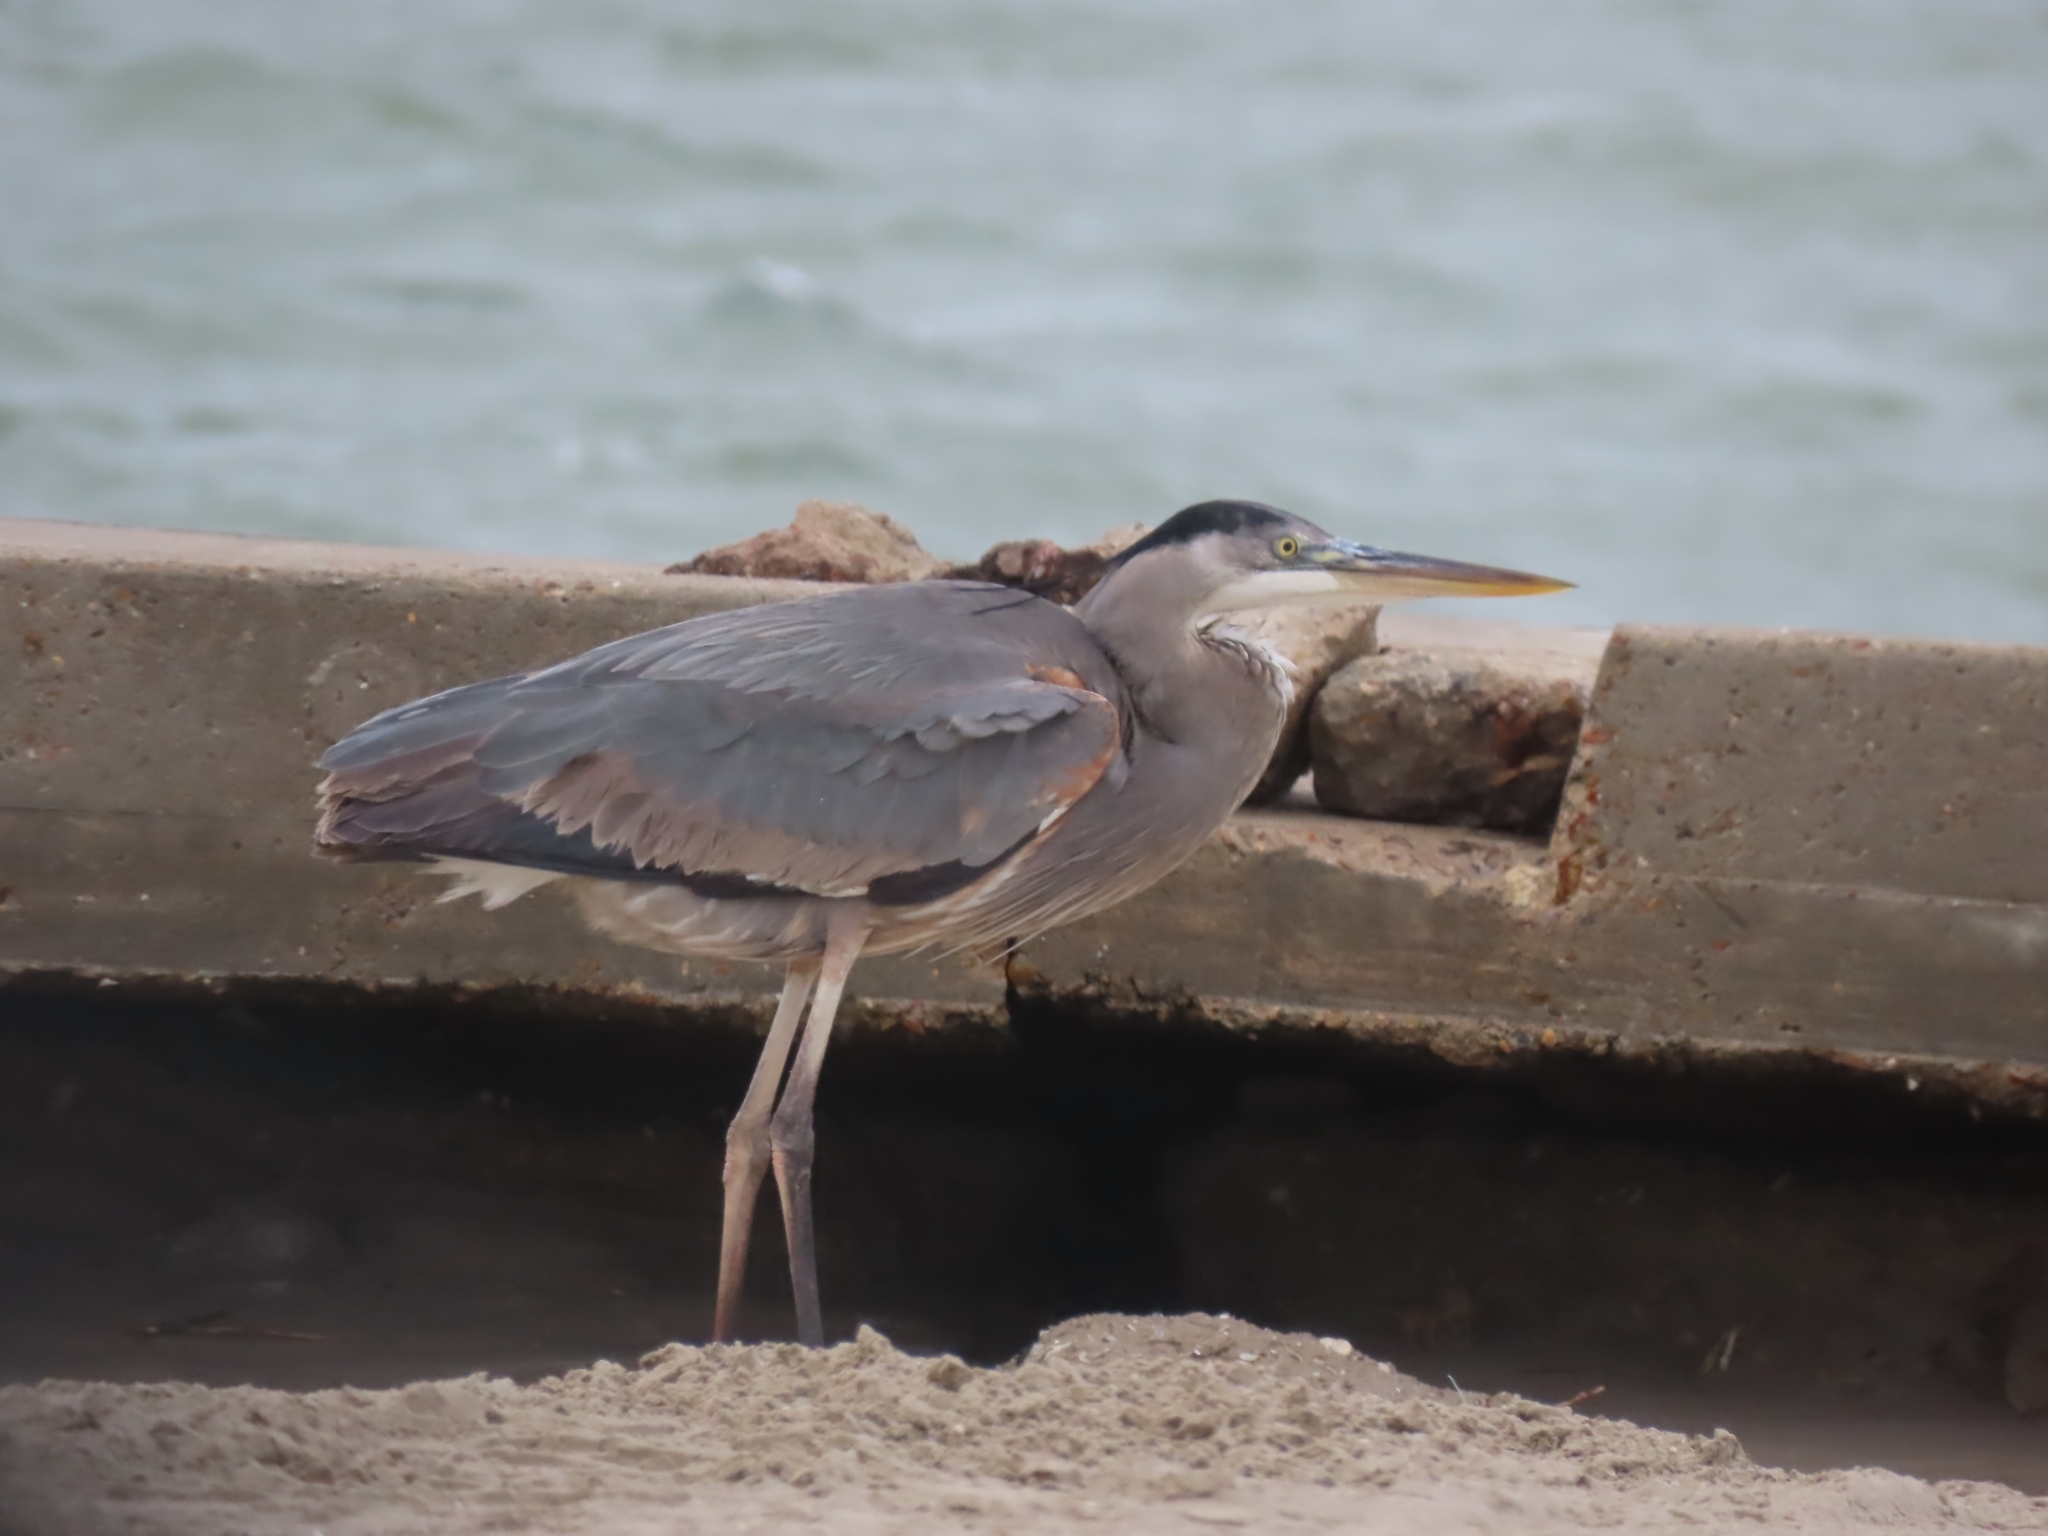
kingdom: Animalia
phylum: Chordata
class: Aves
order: Pelecaniformes
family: Ardeidae
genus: Ardea
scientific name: Ardea herodias
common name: Great blue heron
